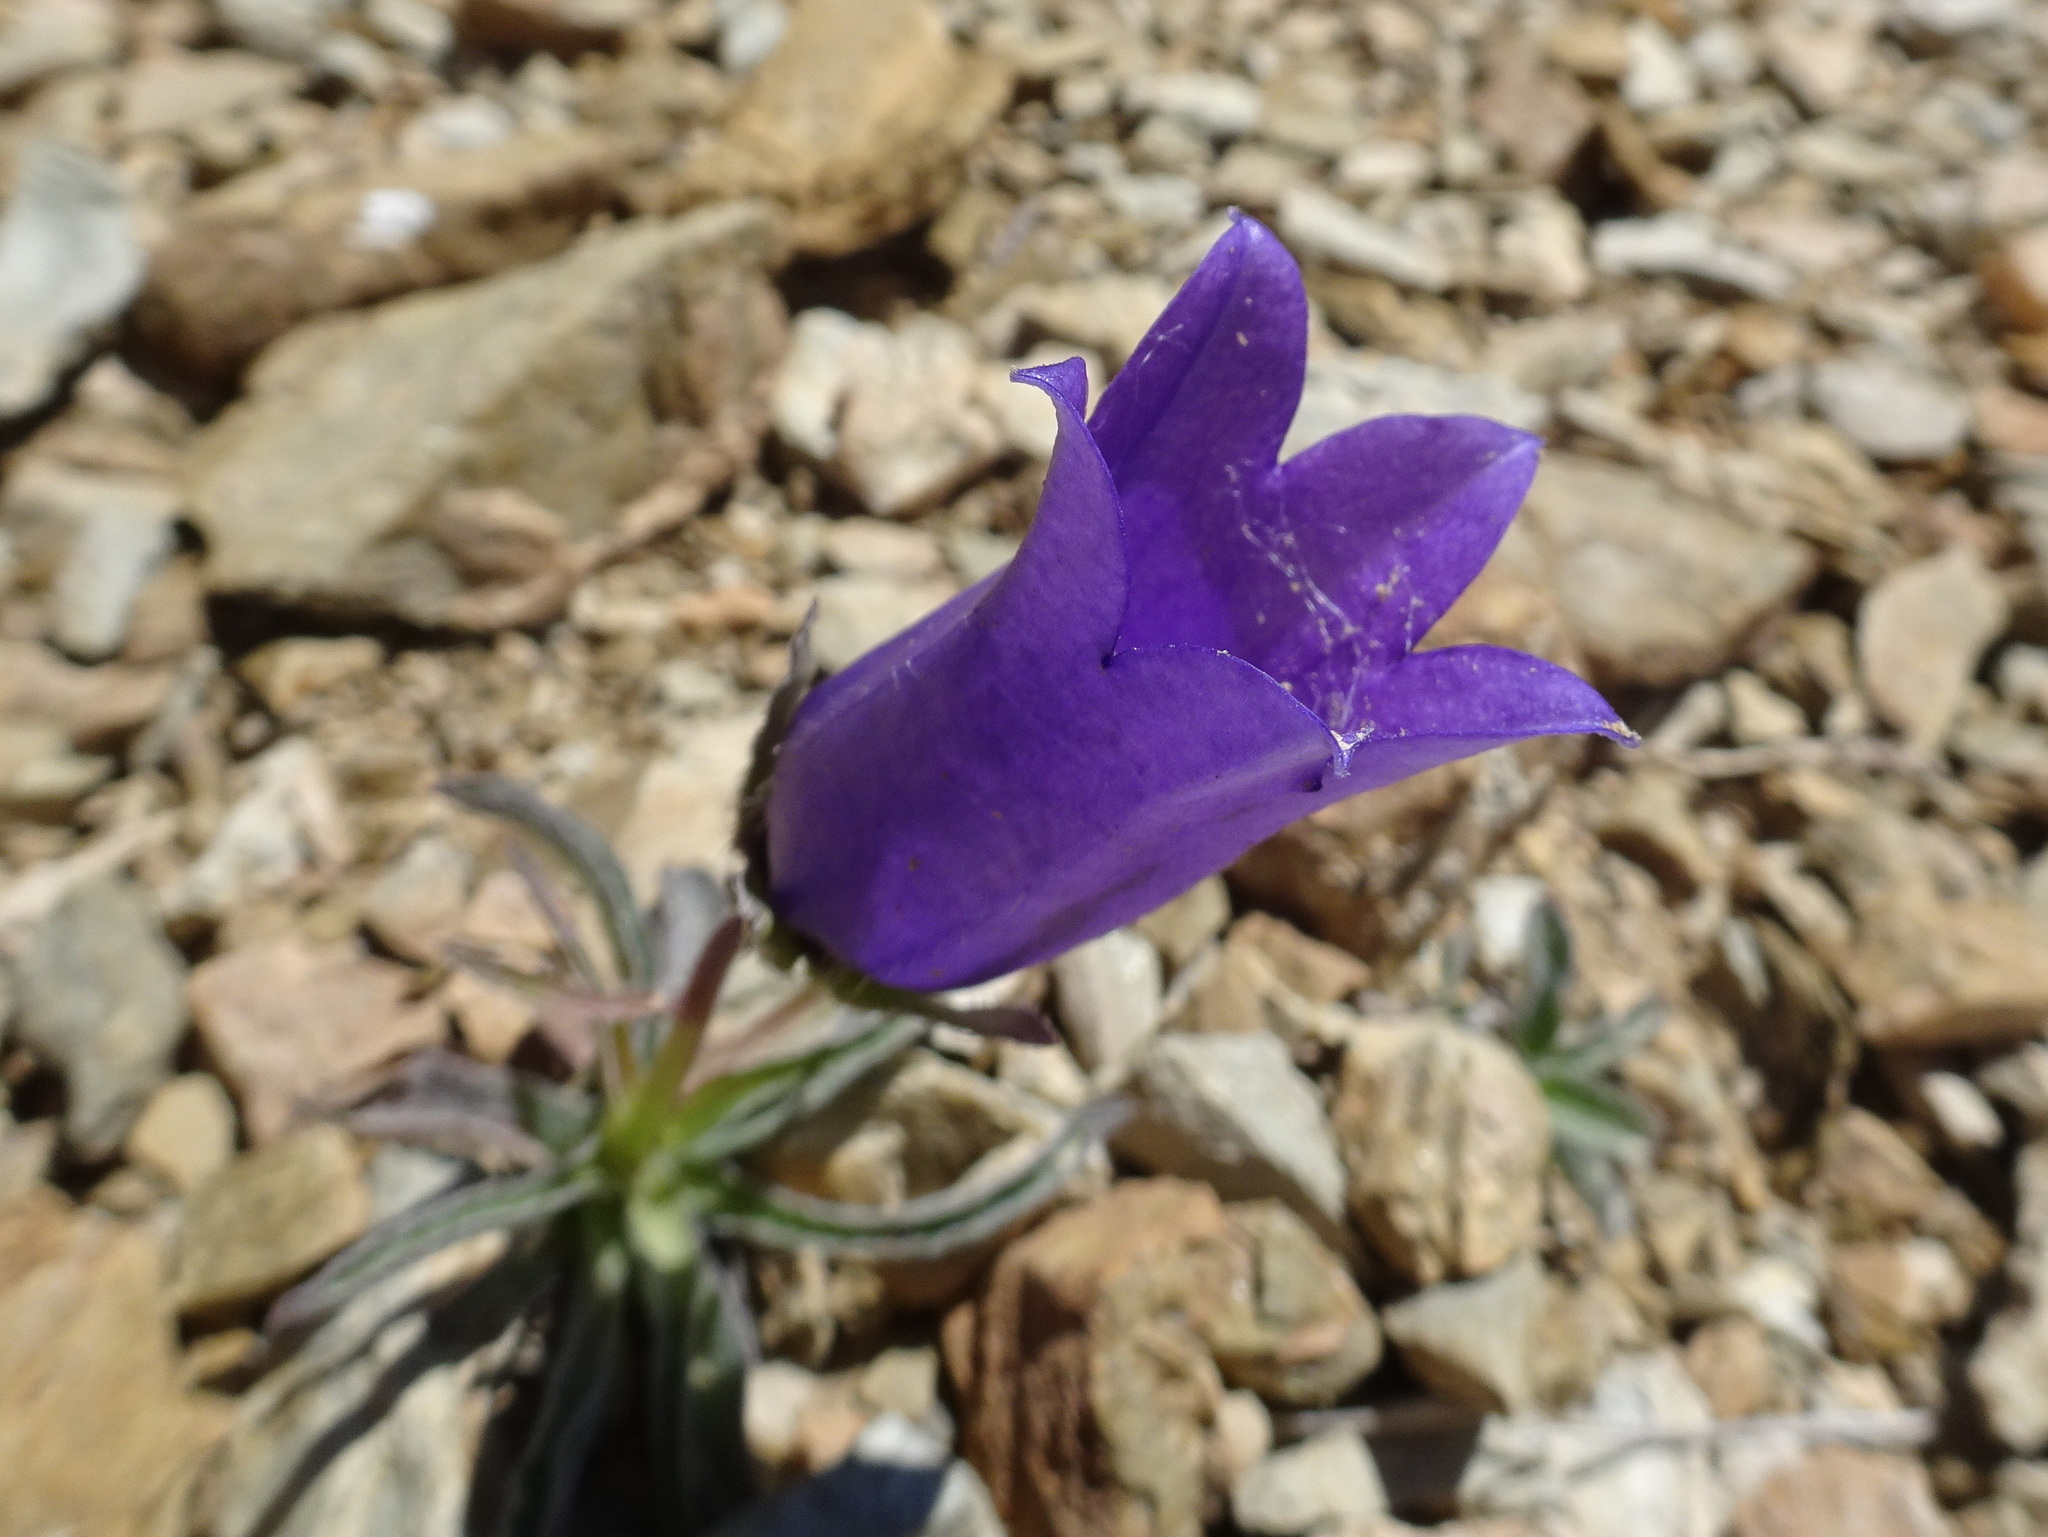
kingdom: Plantae
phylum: Tracheophyta
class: Magnoliopsida
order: Asterales
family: Campanulaceae
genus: Campanula
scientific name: Campanula alpestris
